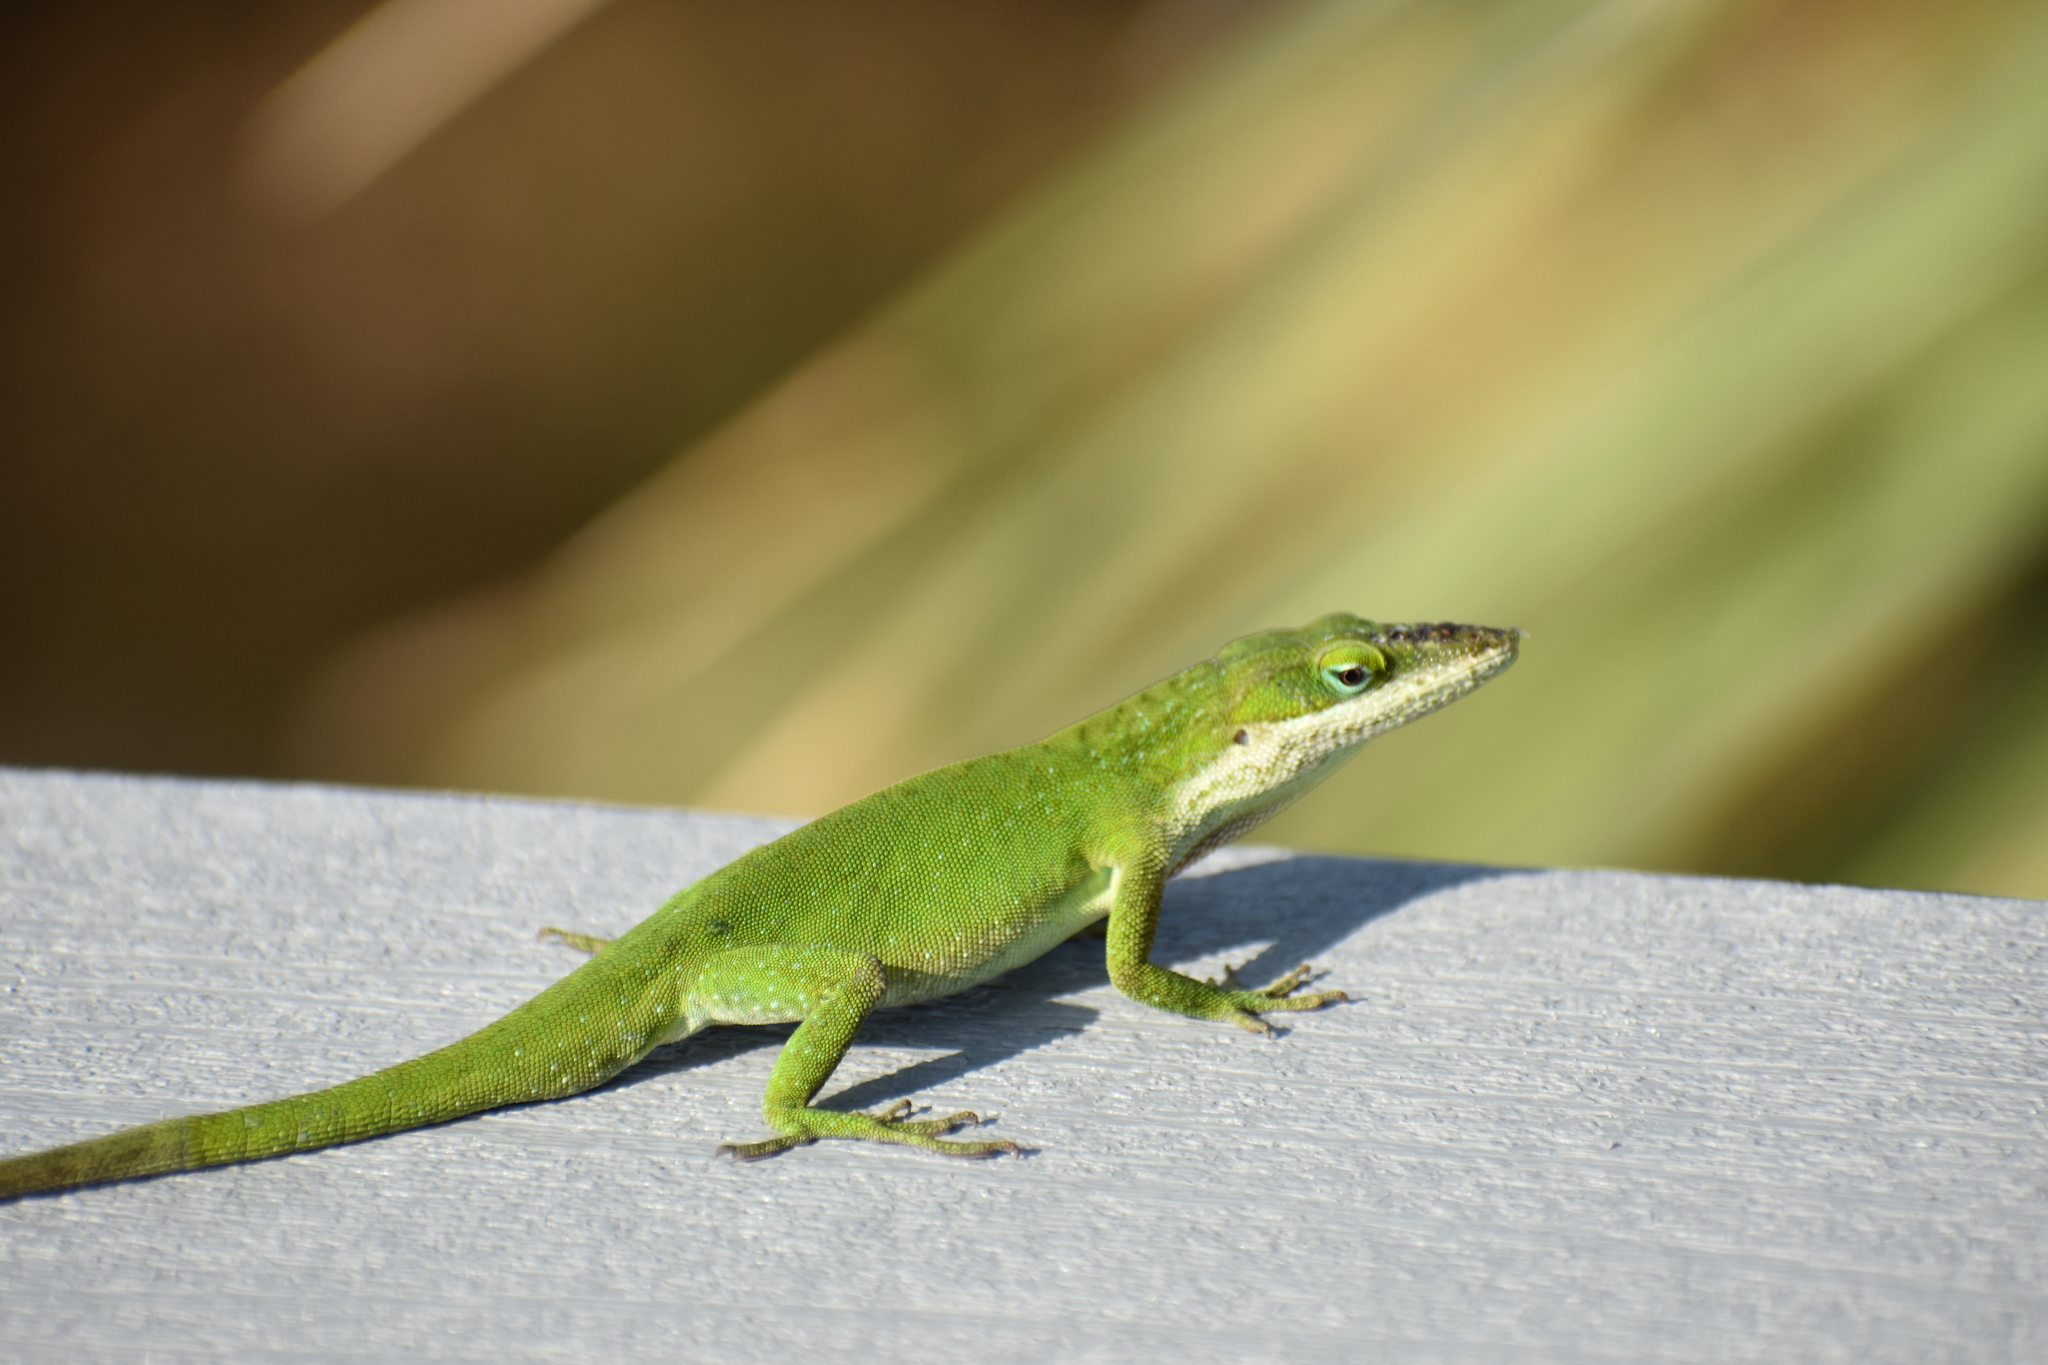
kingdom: Animalia
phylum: Chordata
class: Squamata
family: Dactyloidae
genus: Anolis
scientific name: Anolis carolinensis
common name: Green anole
